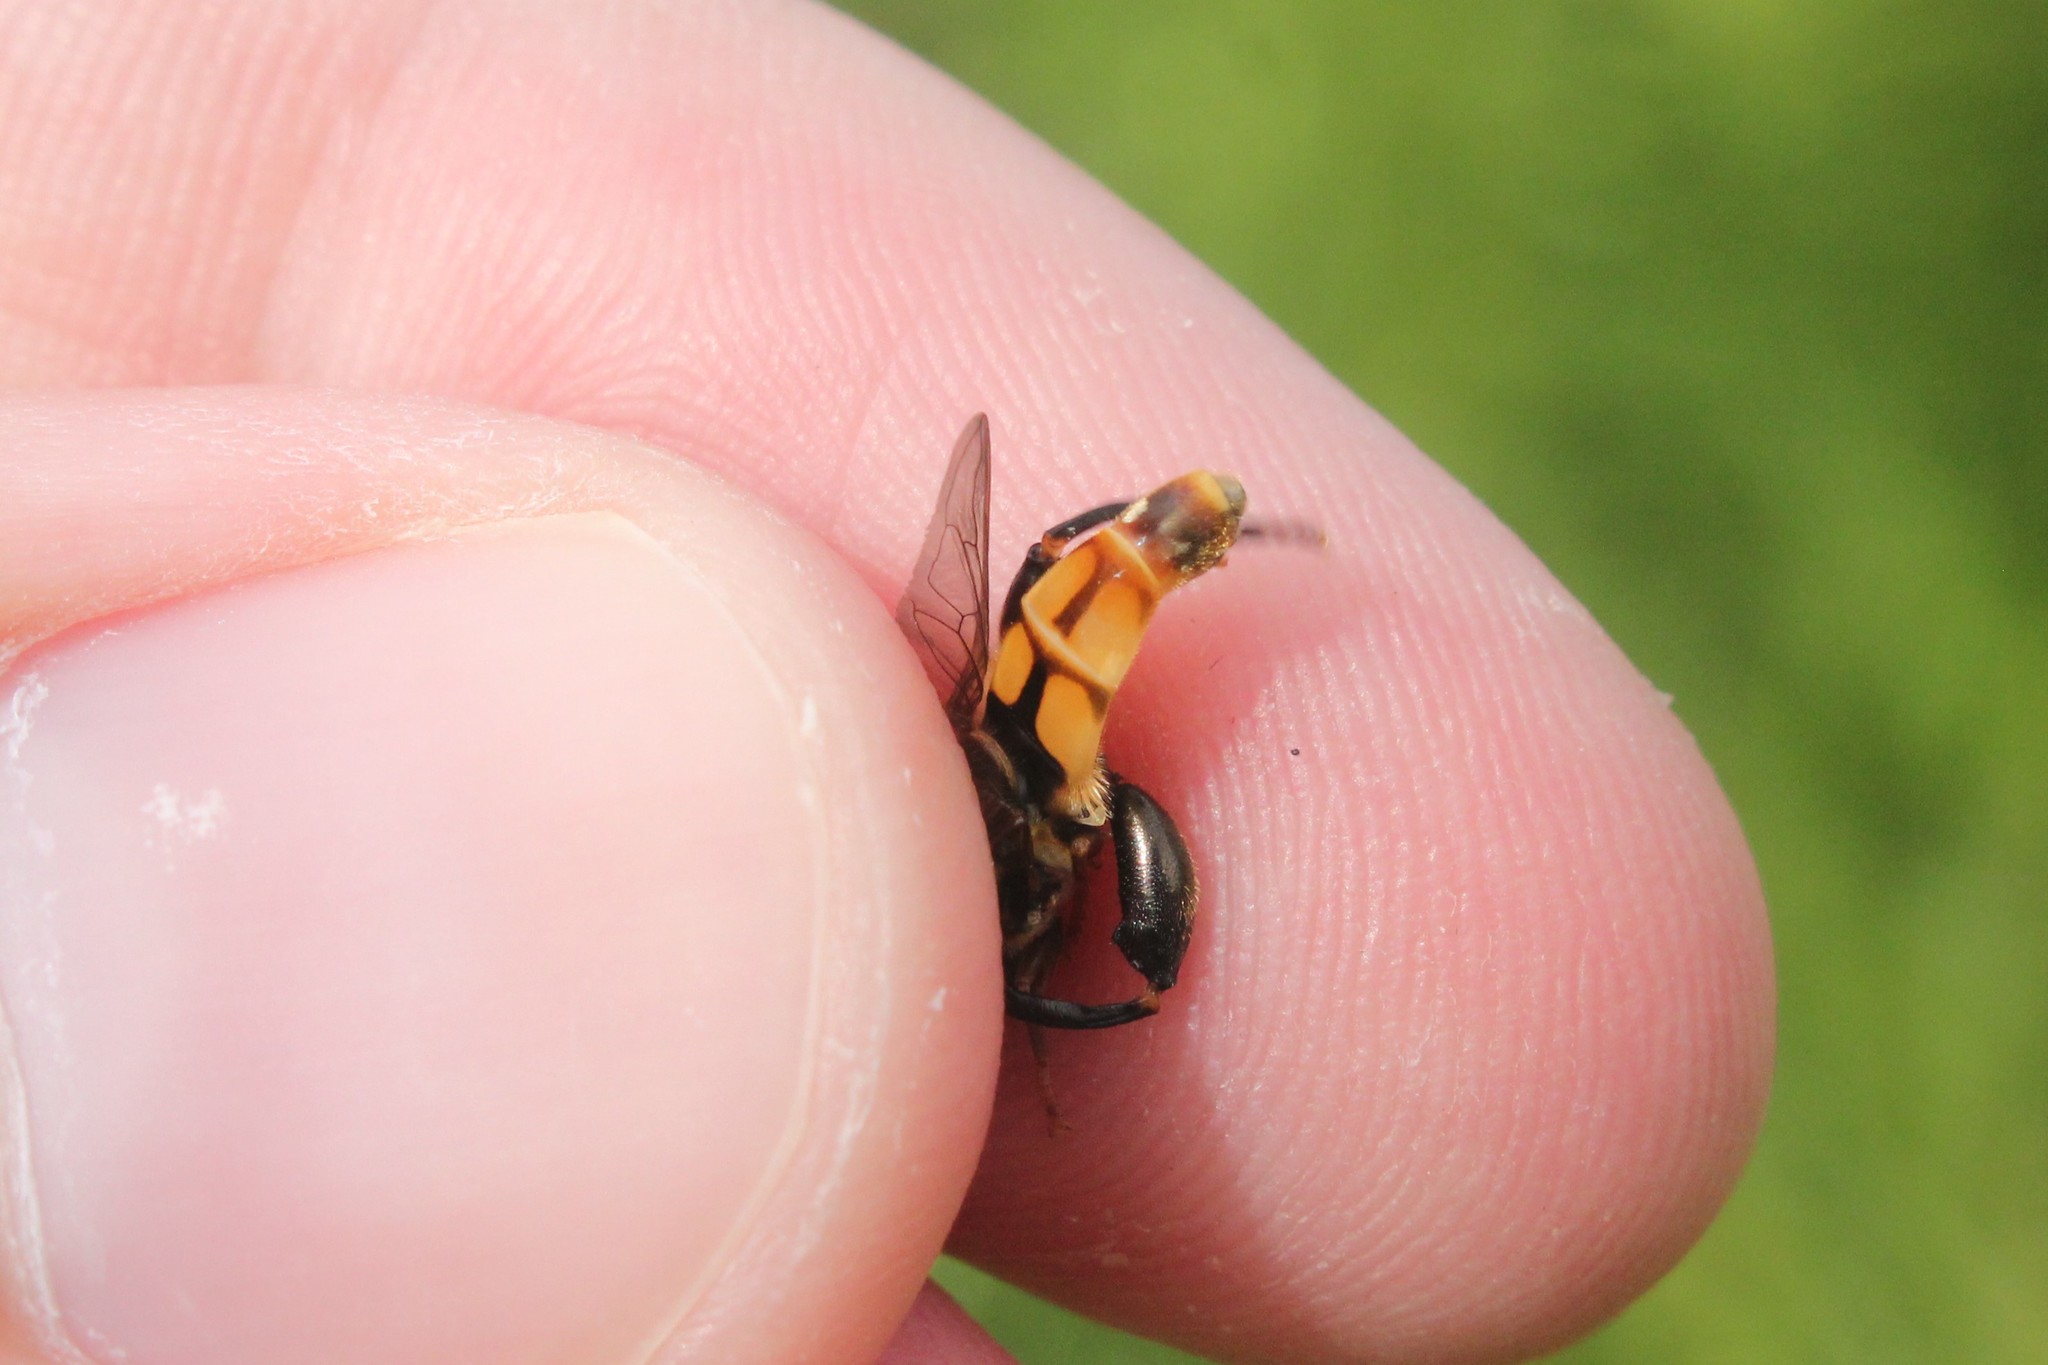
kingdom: Animalia
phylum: Arthropoda
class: Insecta
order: Diptera
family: Syrphidae
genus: Tropidia
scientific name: Tropidia quadrata
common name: Common thick-legged fly
